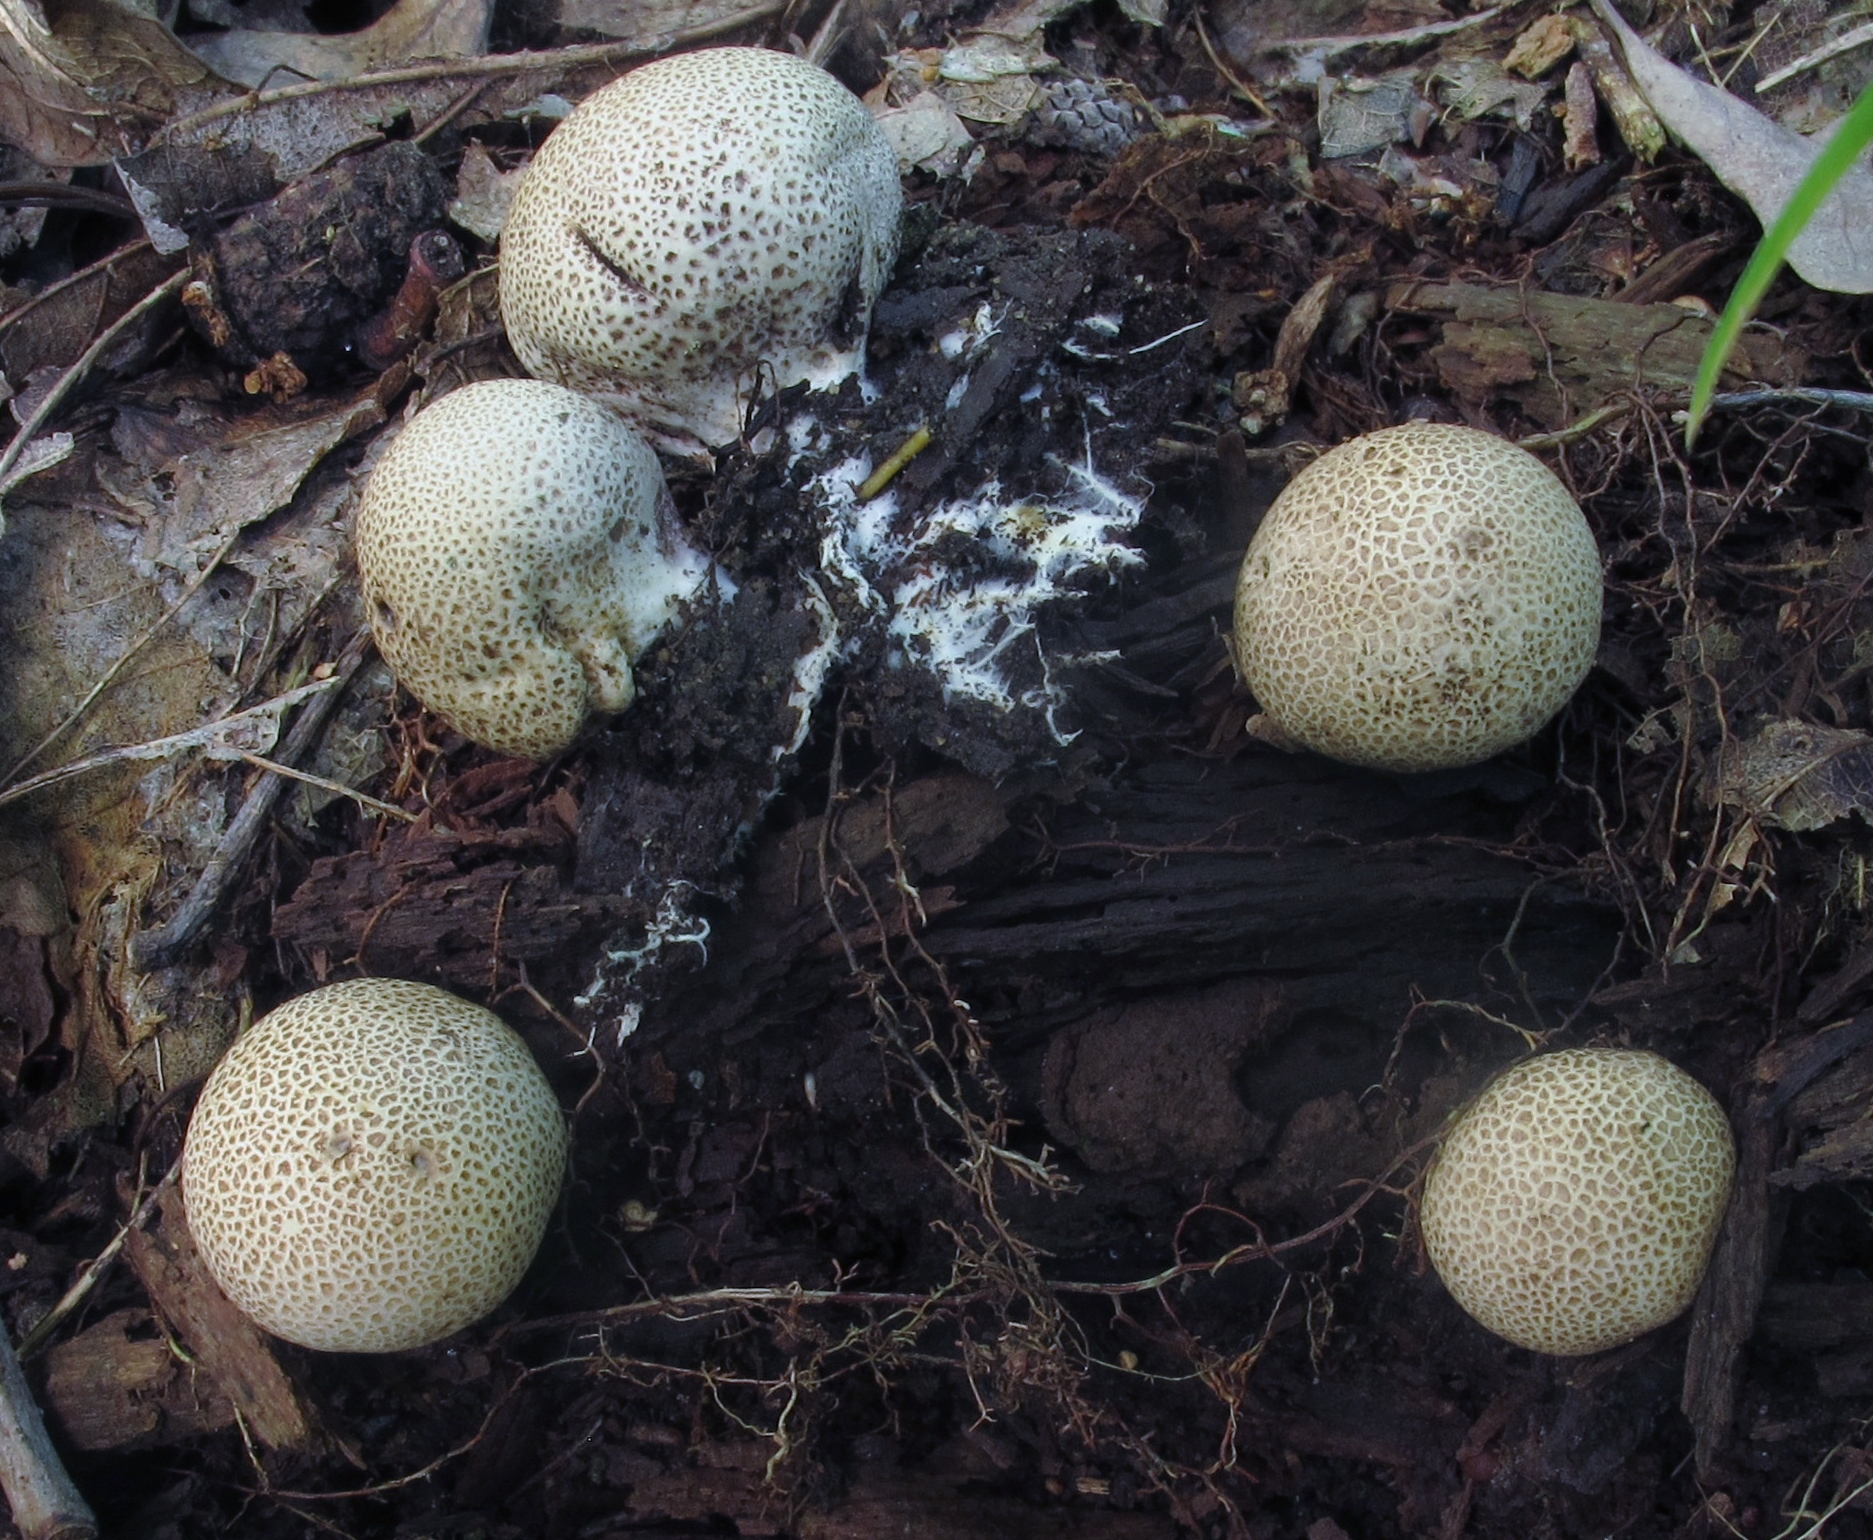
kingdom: Fungi
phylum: Basidiomycota
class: Agaricomycetes
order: Boletales
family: Sclerodermataceae
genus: Scleroderma
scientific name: Scleroderma areolatum
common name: Leopard earthball
